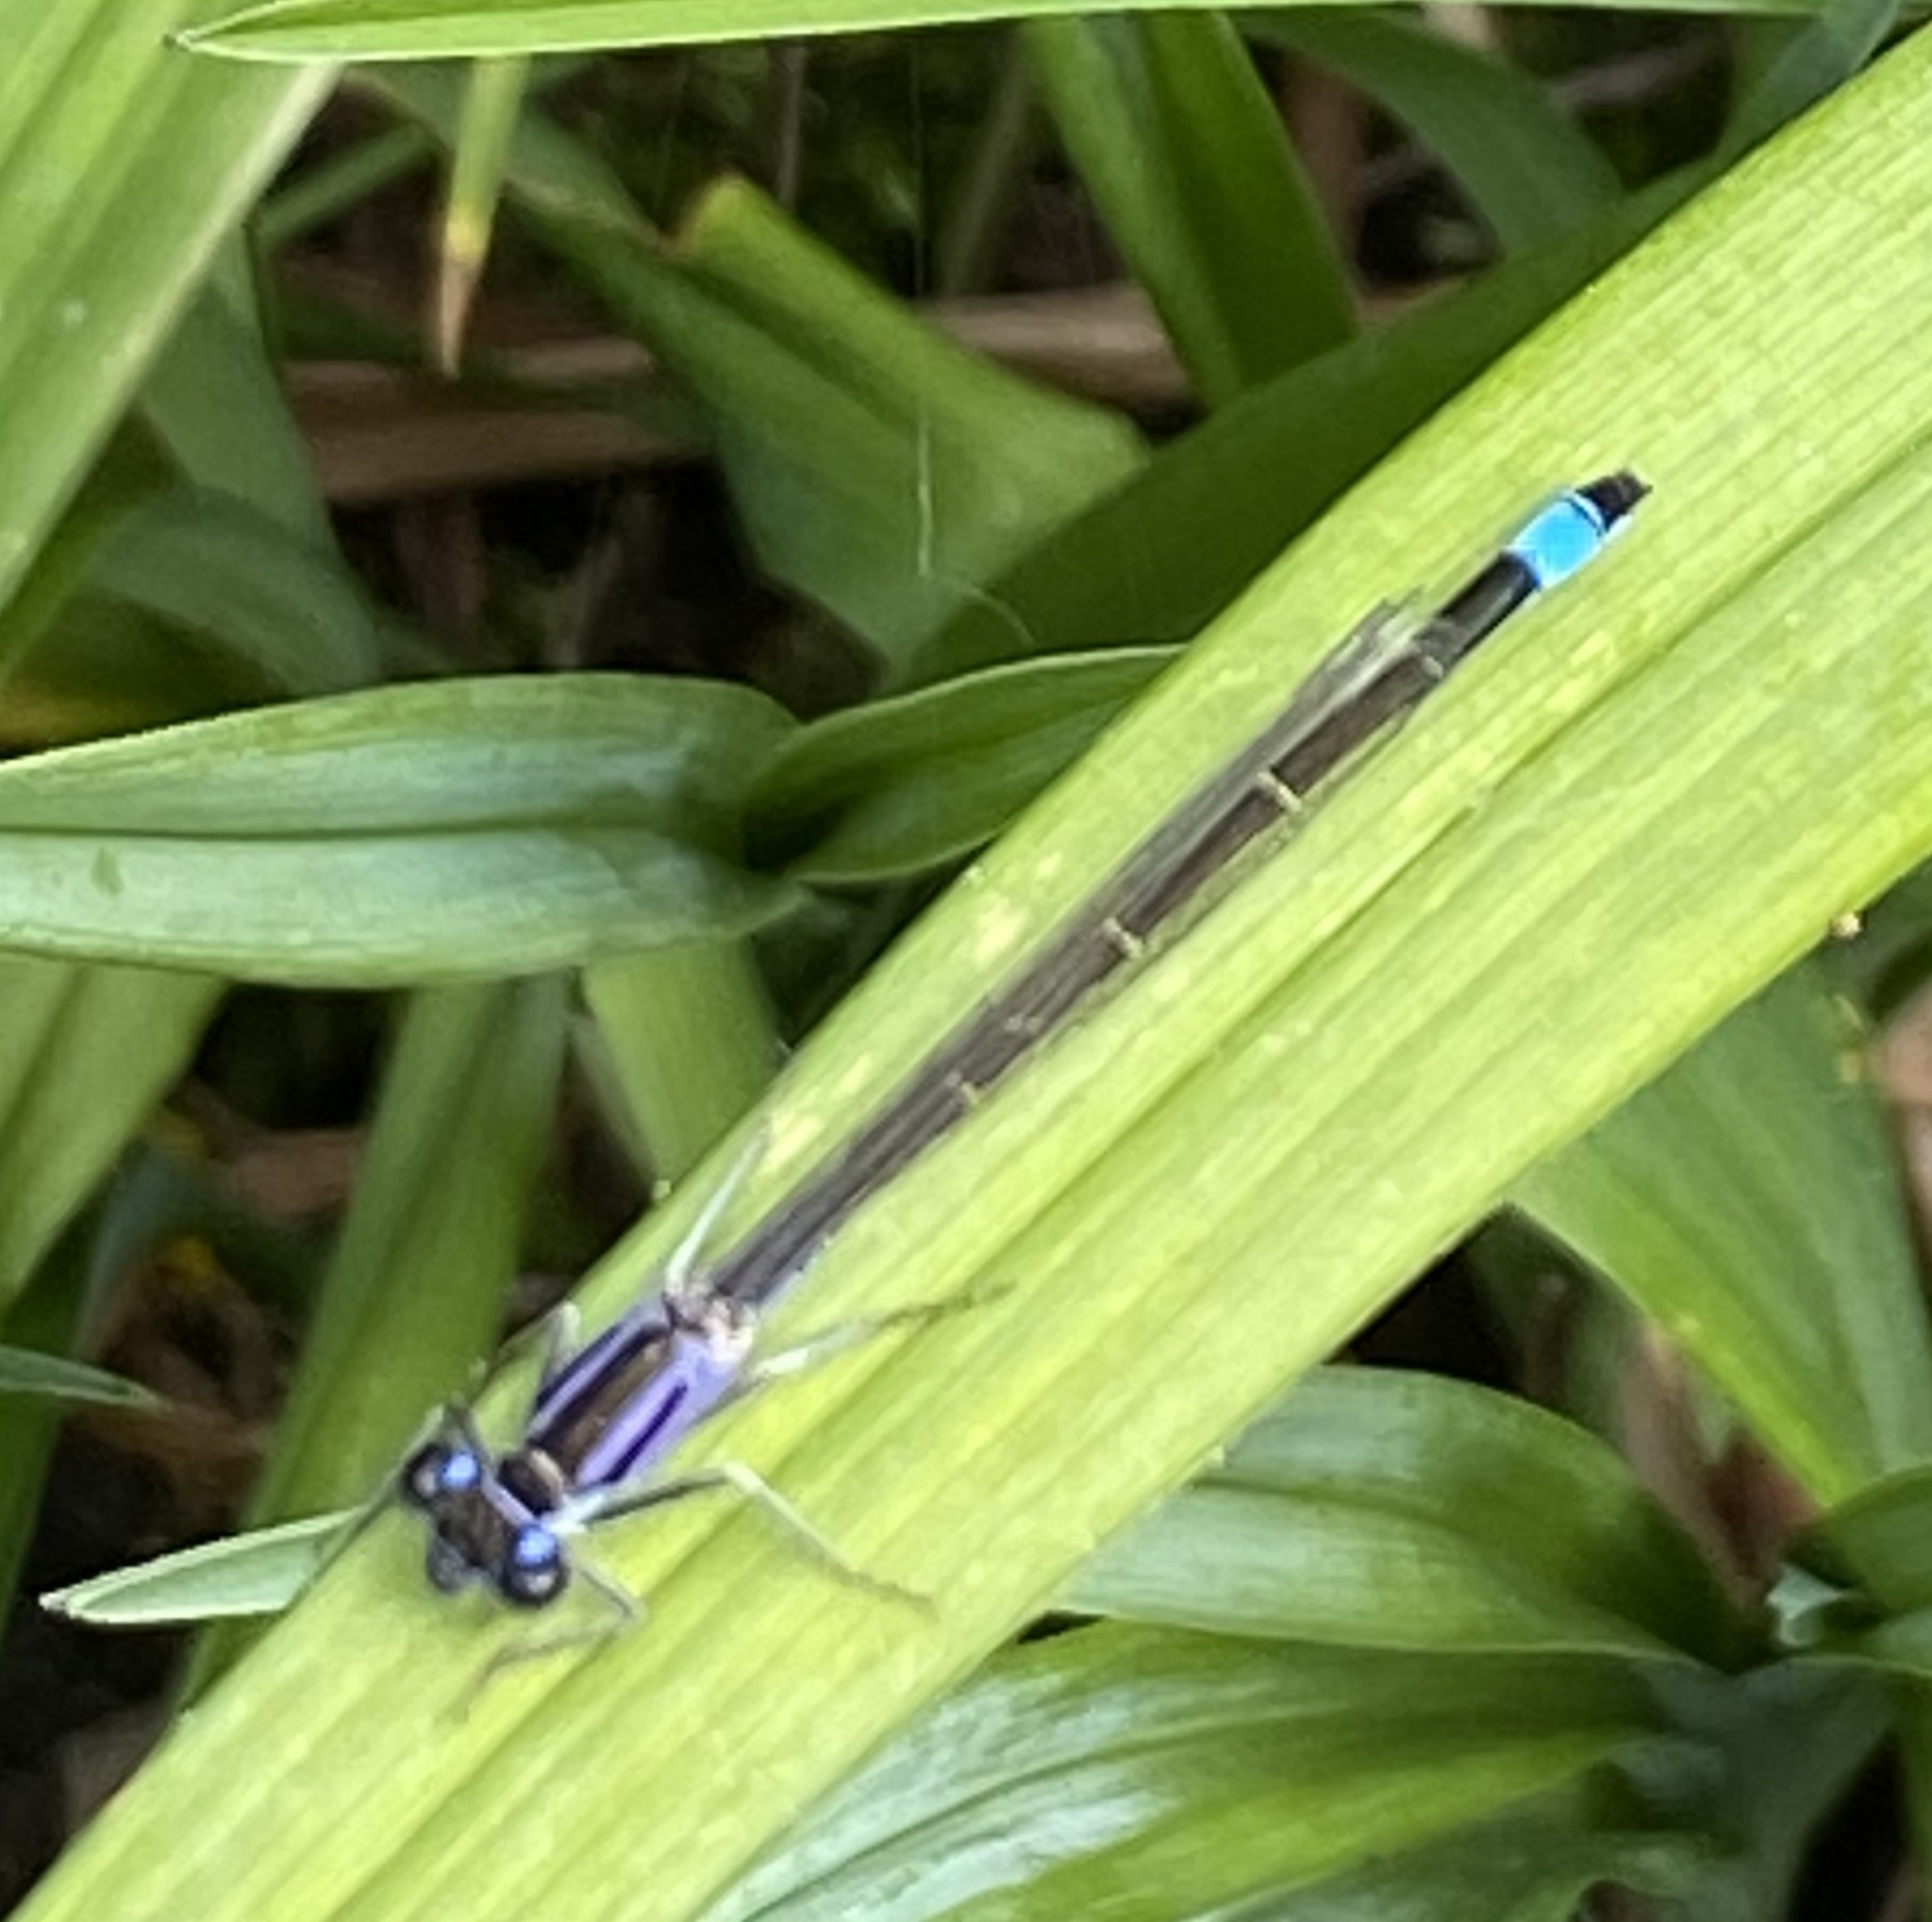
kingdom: Animalia
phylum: Arthropoda
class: Insecta
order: Odonata
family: Coenagrionidae
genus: Ischnura
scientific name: Ischnura elegans
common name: Blue-tailed damselfly
